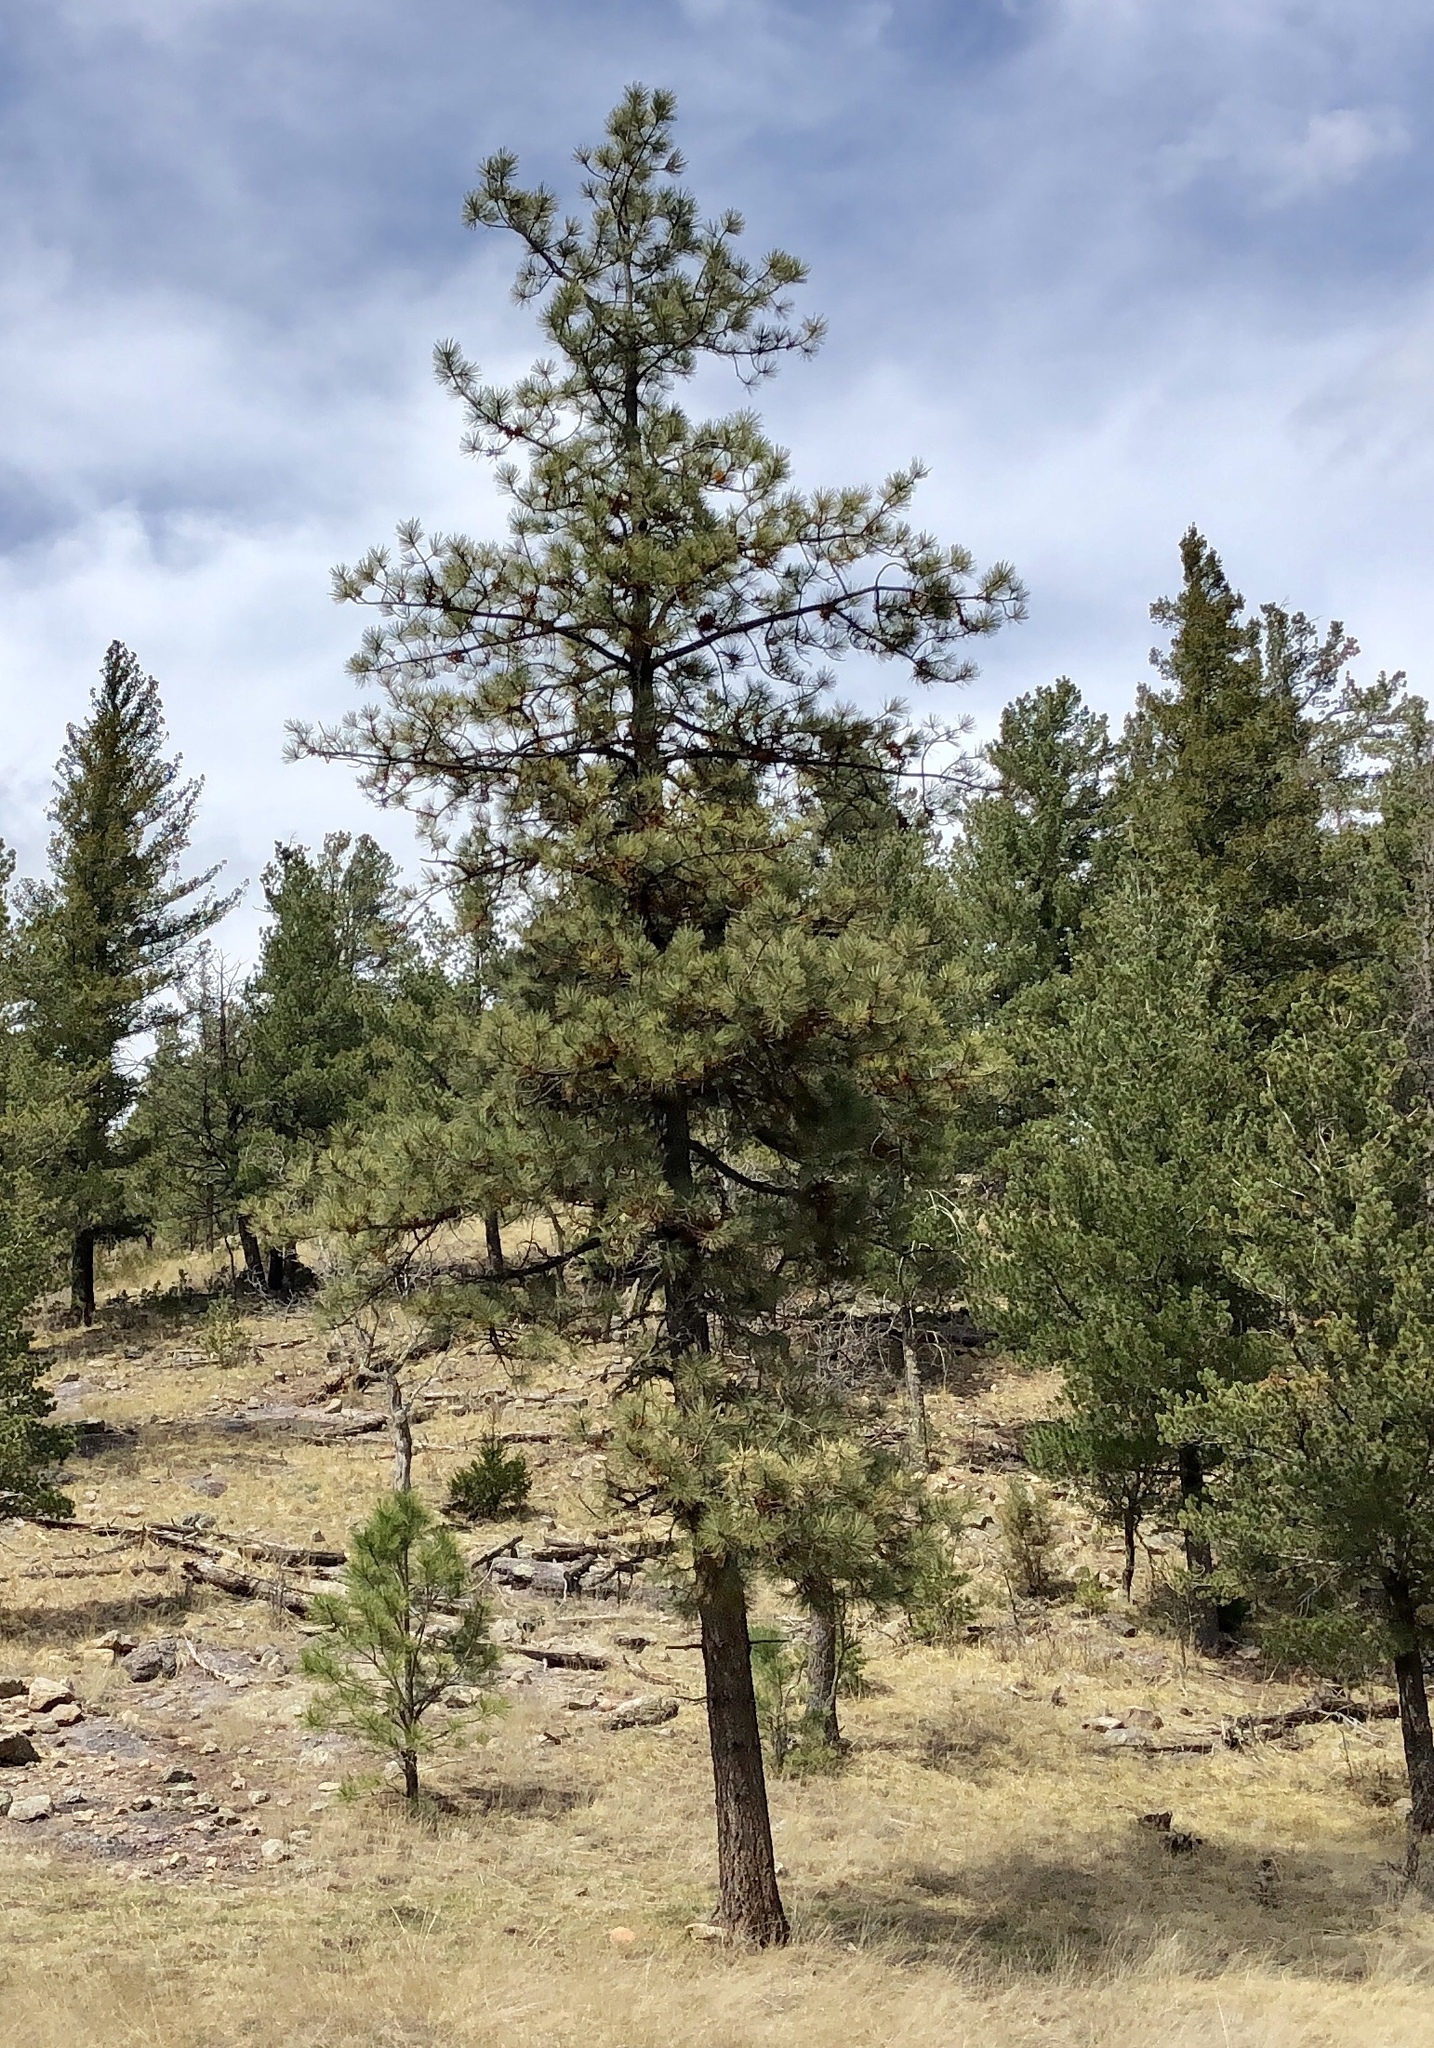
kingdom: Plantae
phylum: Tracheophyta
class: Pinopsida
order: Pinales
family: Pinaceae
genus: Pinus
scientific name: Pinus ponderosa
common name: Western yellow-pine
